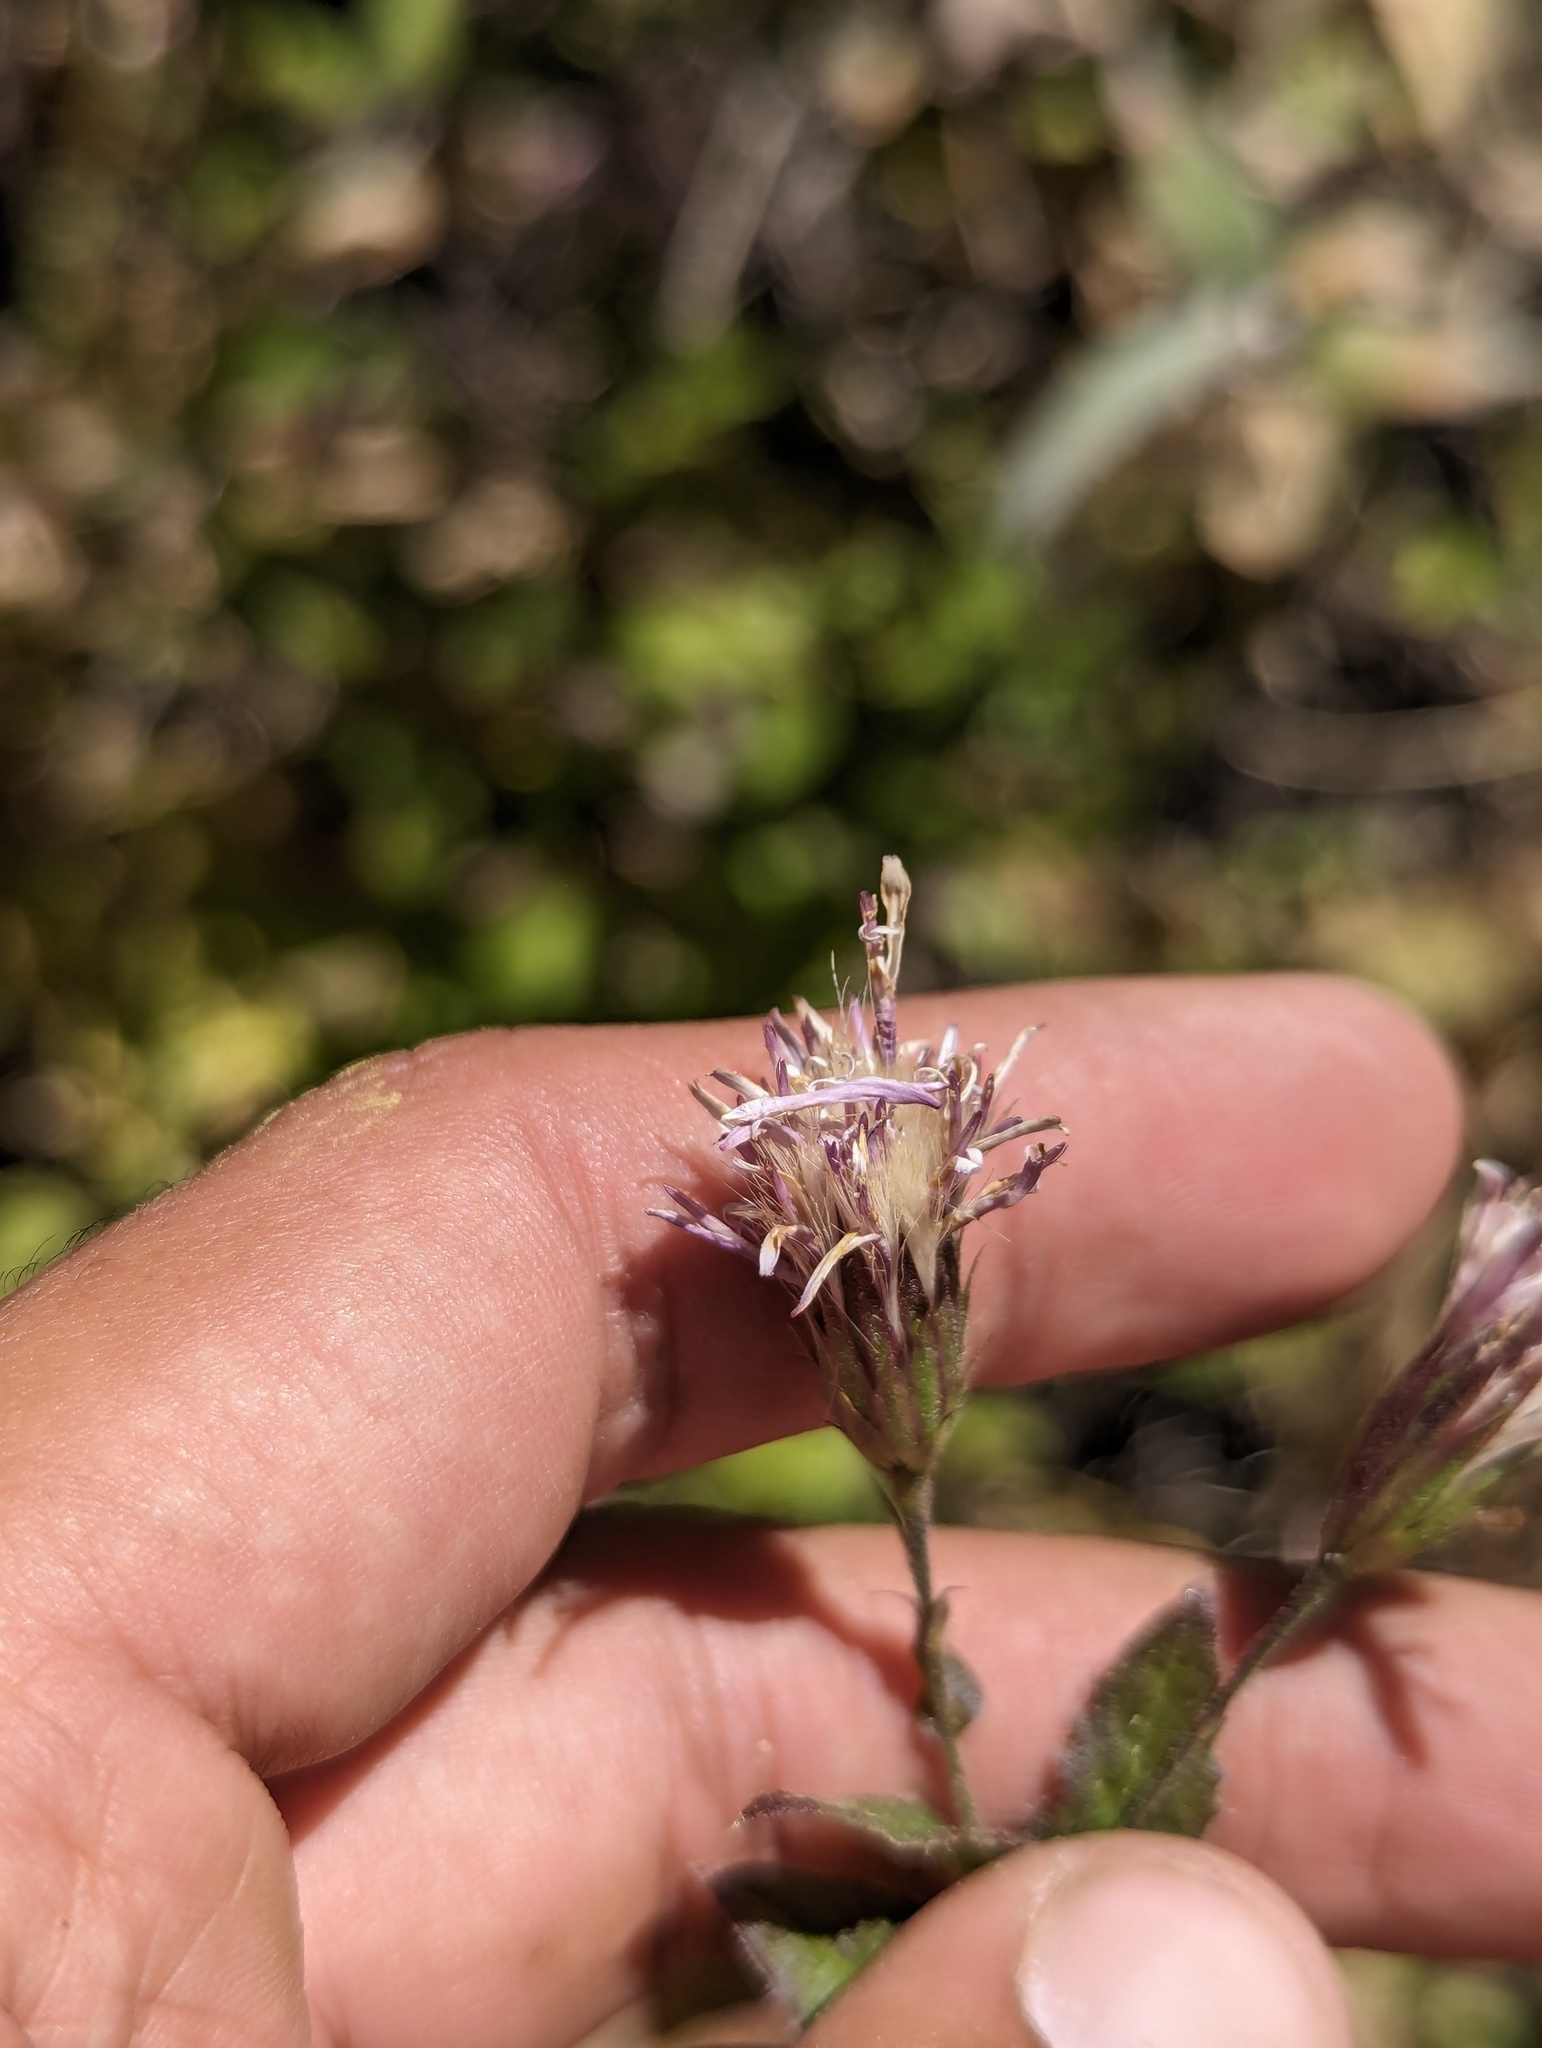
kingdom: Plantae
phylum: Tracheophyta
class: Magnoliopsida
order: Asterales
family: Asteraceae
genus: Acourtia
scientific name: Acourtia pinetorum
